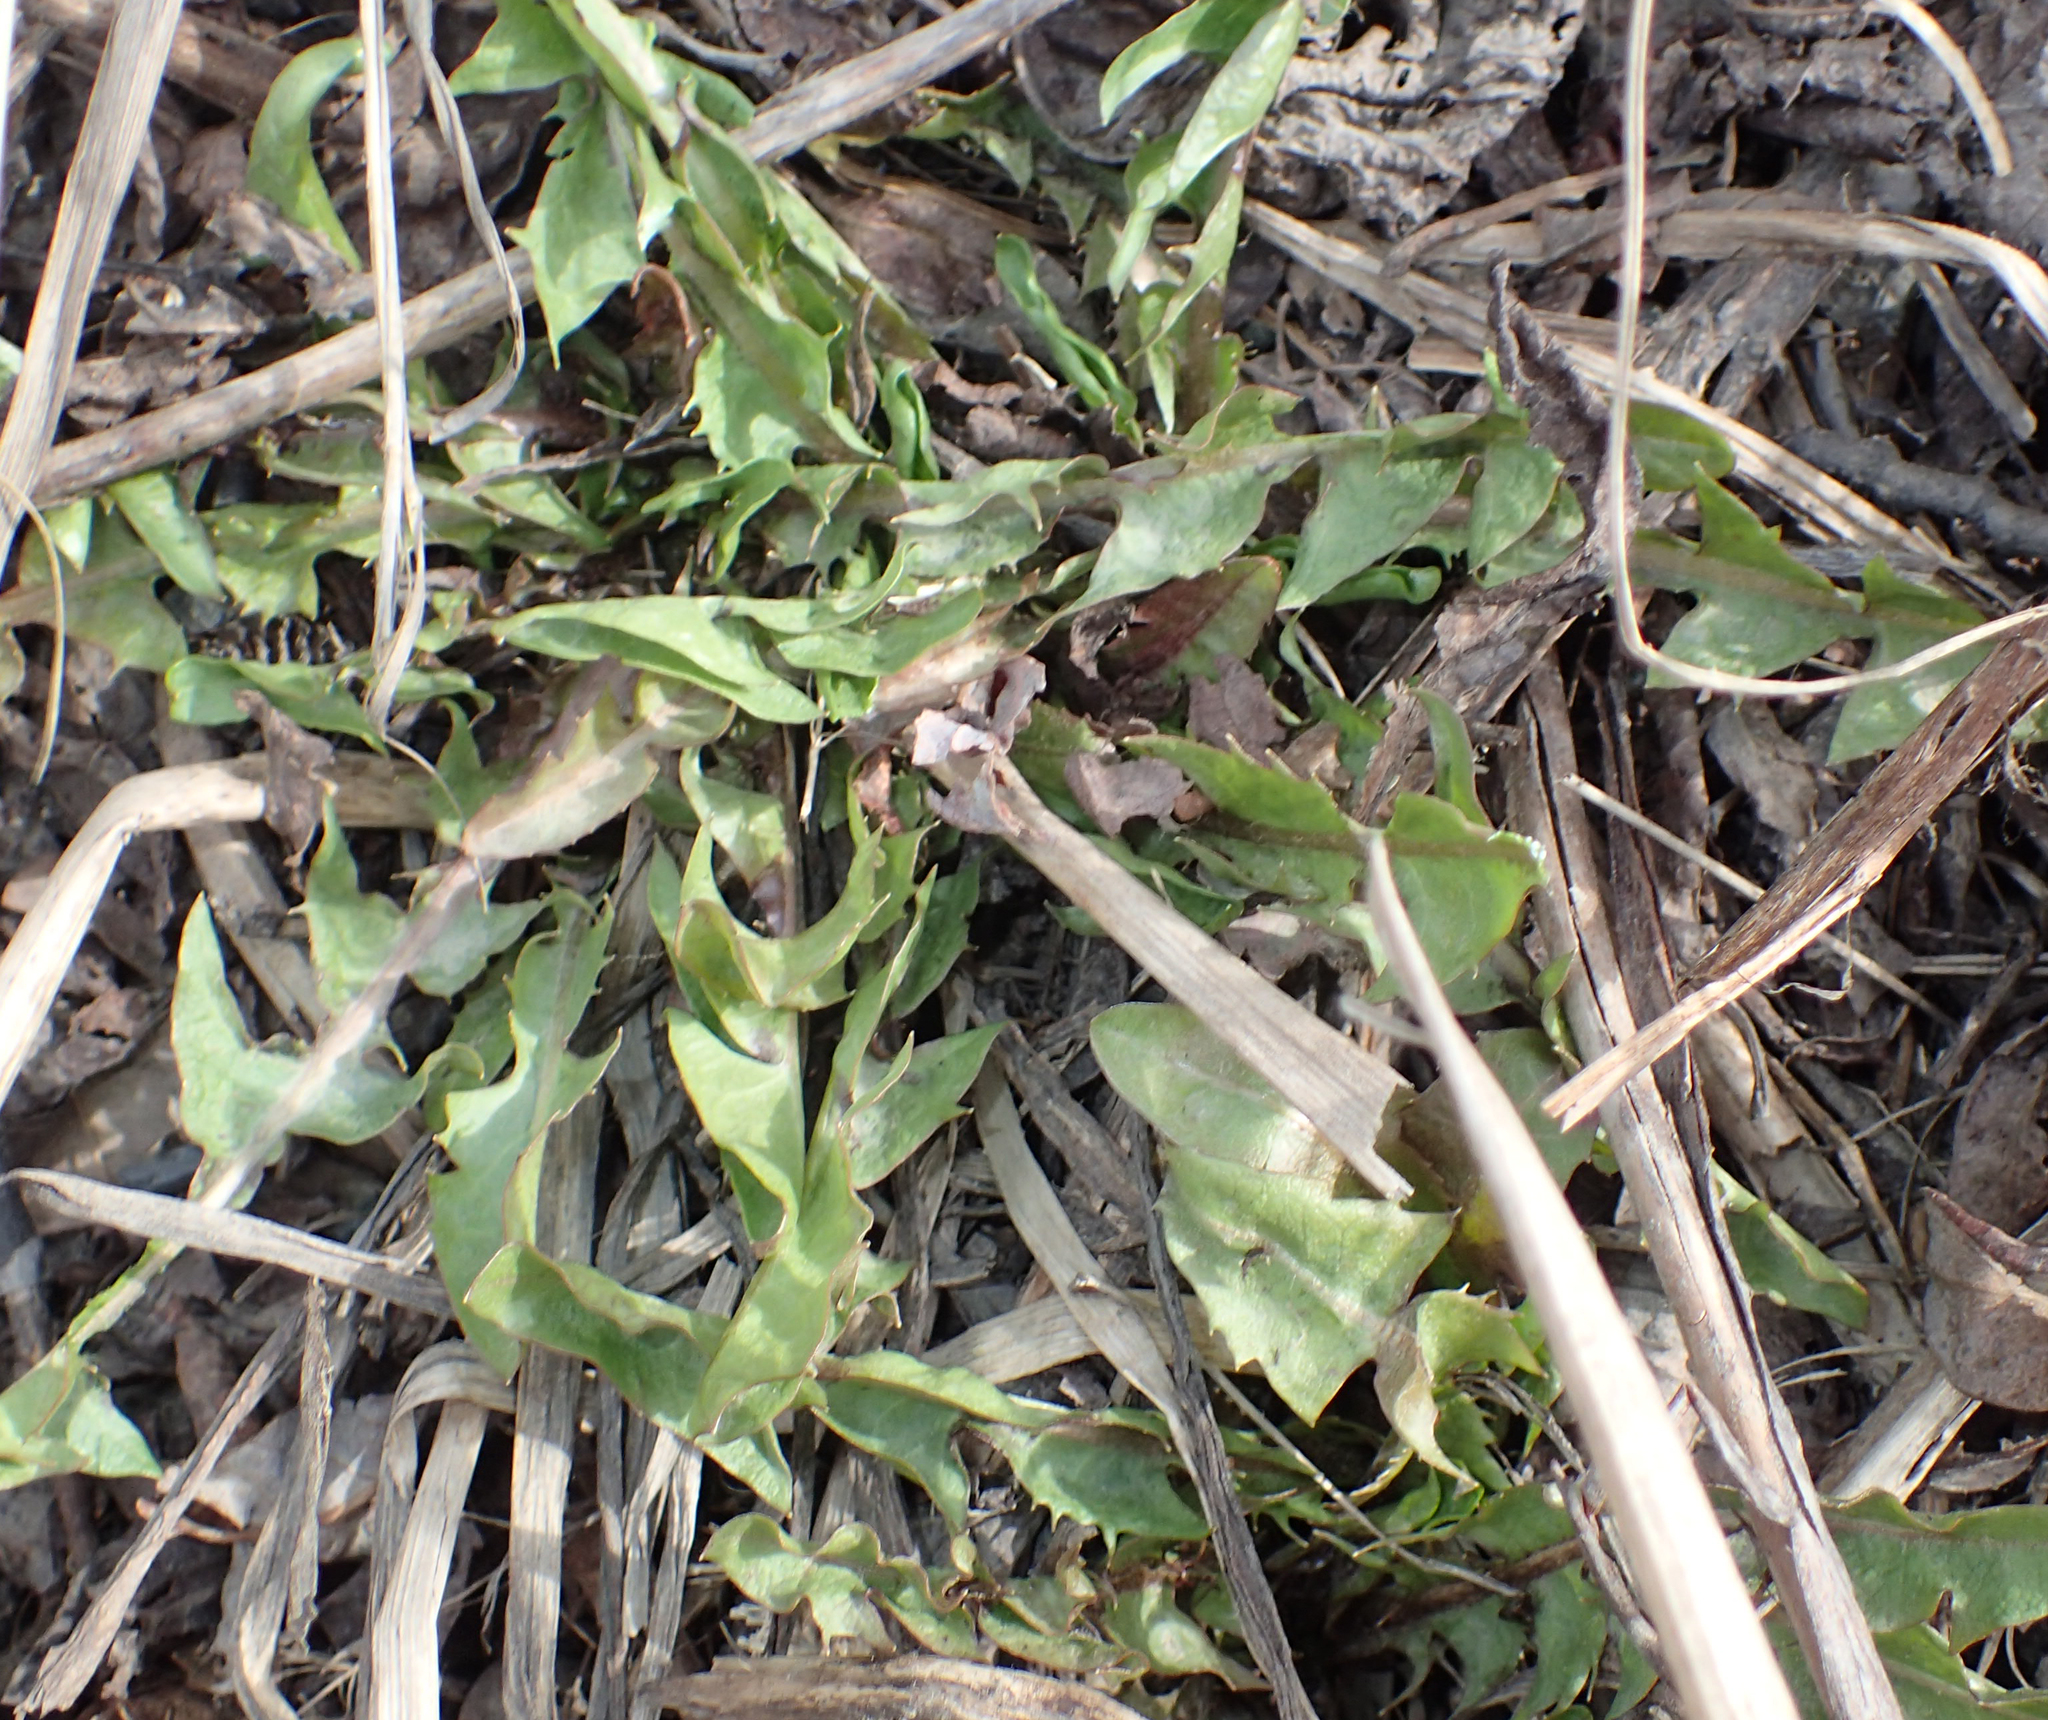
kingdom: Plantae
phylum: Tracheophyta
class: Magnoliopsida
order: Asterales
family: Asteraceae
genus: Taraxacum
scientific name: Taraxacum officinale
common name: Common dandelion
